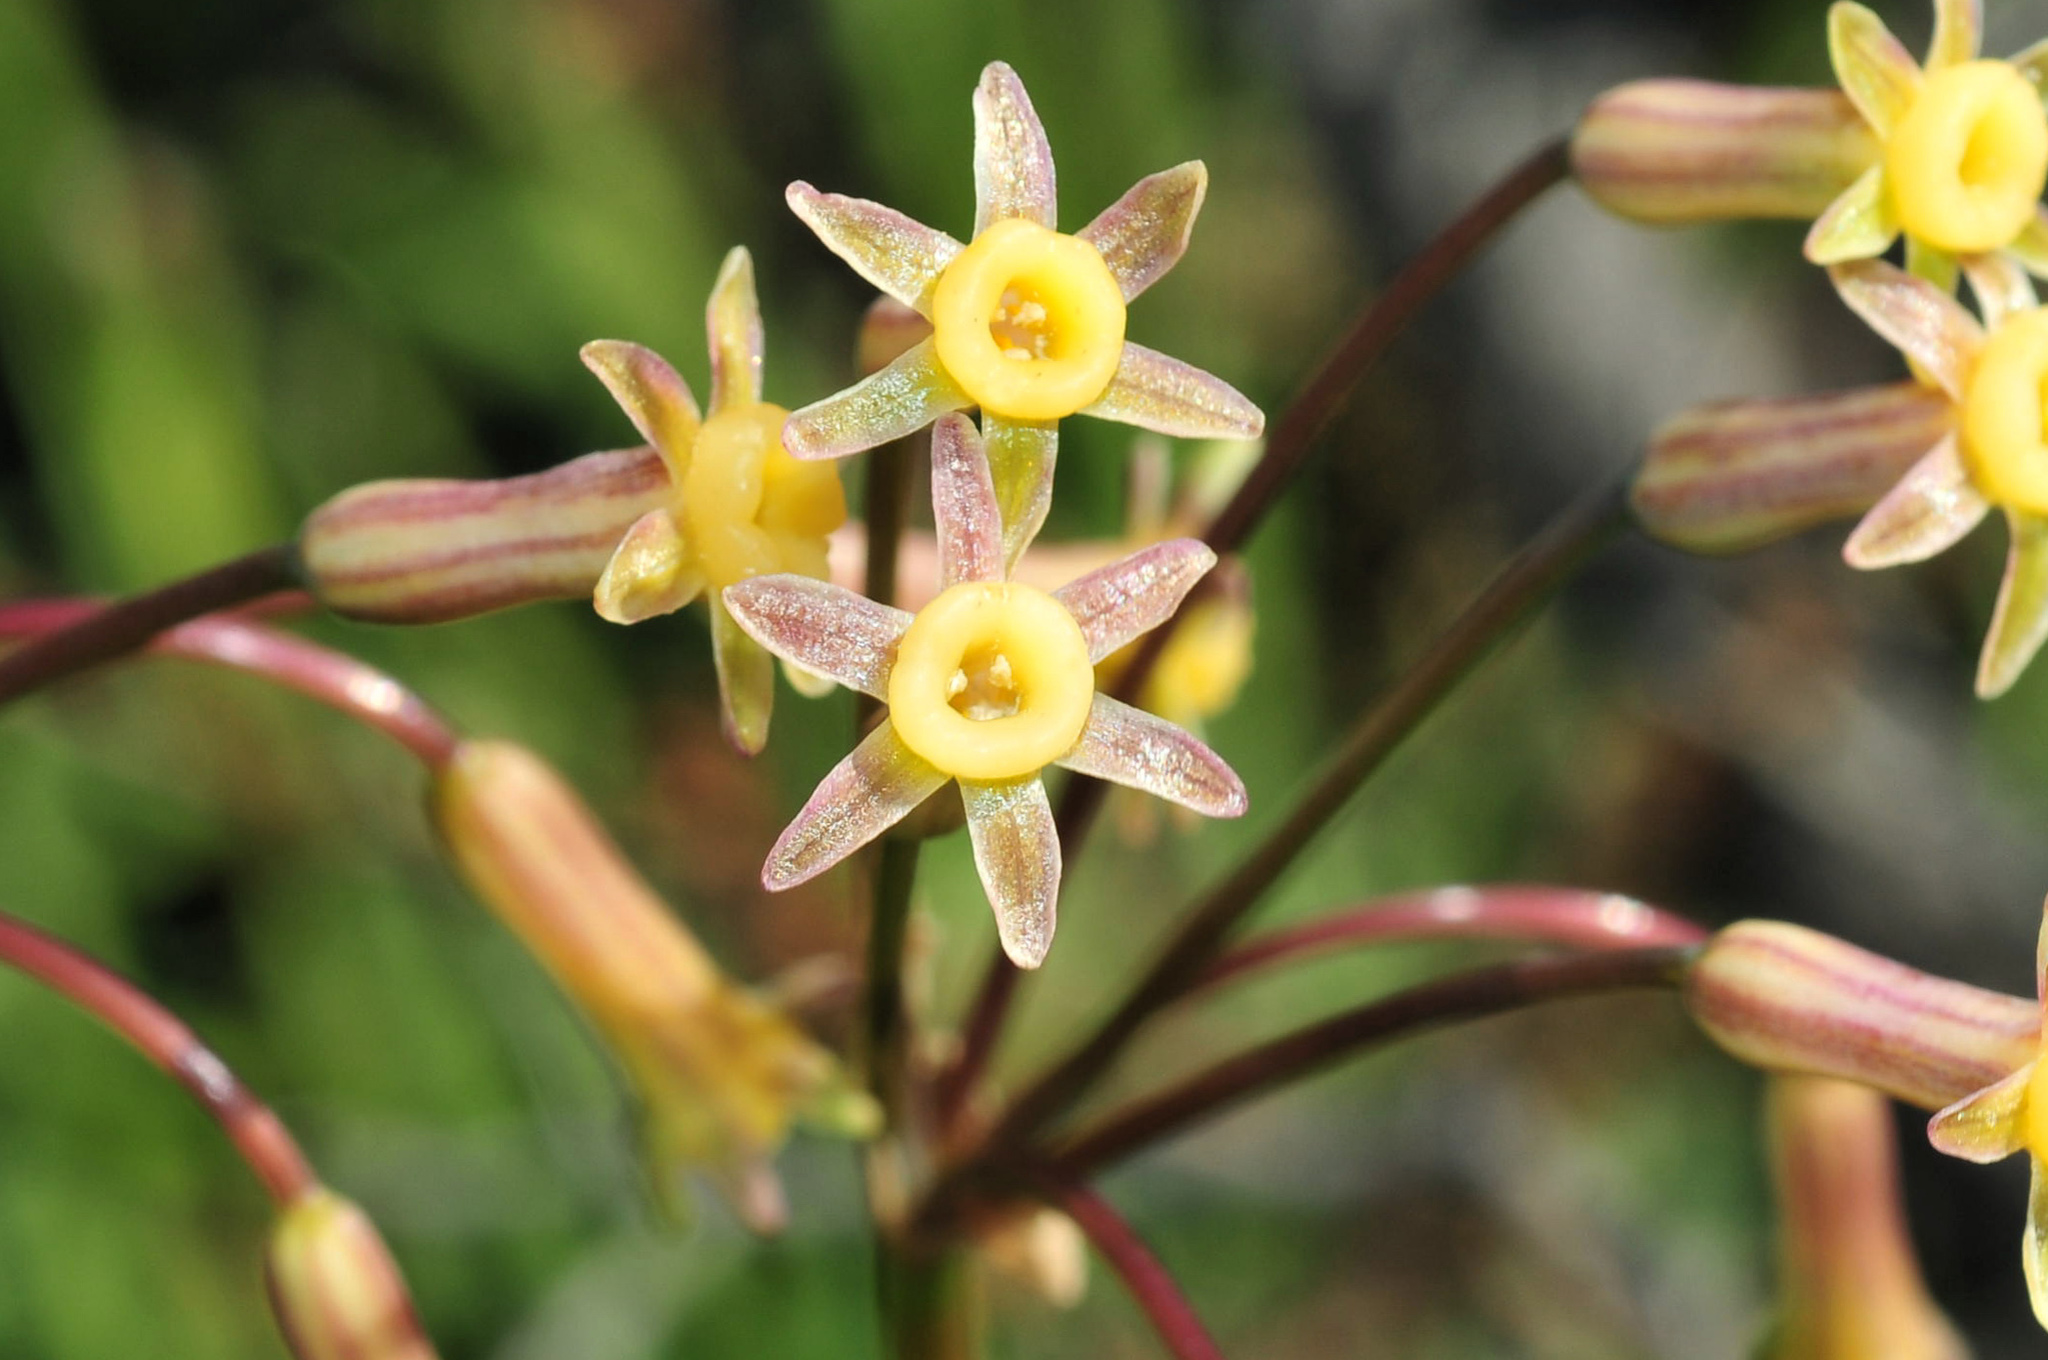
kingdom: Plantae
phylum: Tracheophyta
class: Liliopsida
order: Asparagales
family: Amaryllidaceae
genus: Tulbaghia
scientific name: Tulbaghia dregeana
